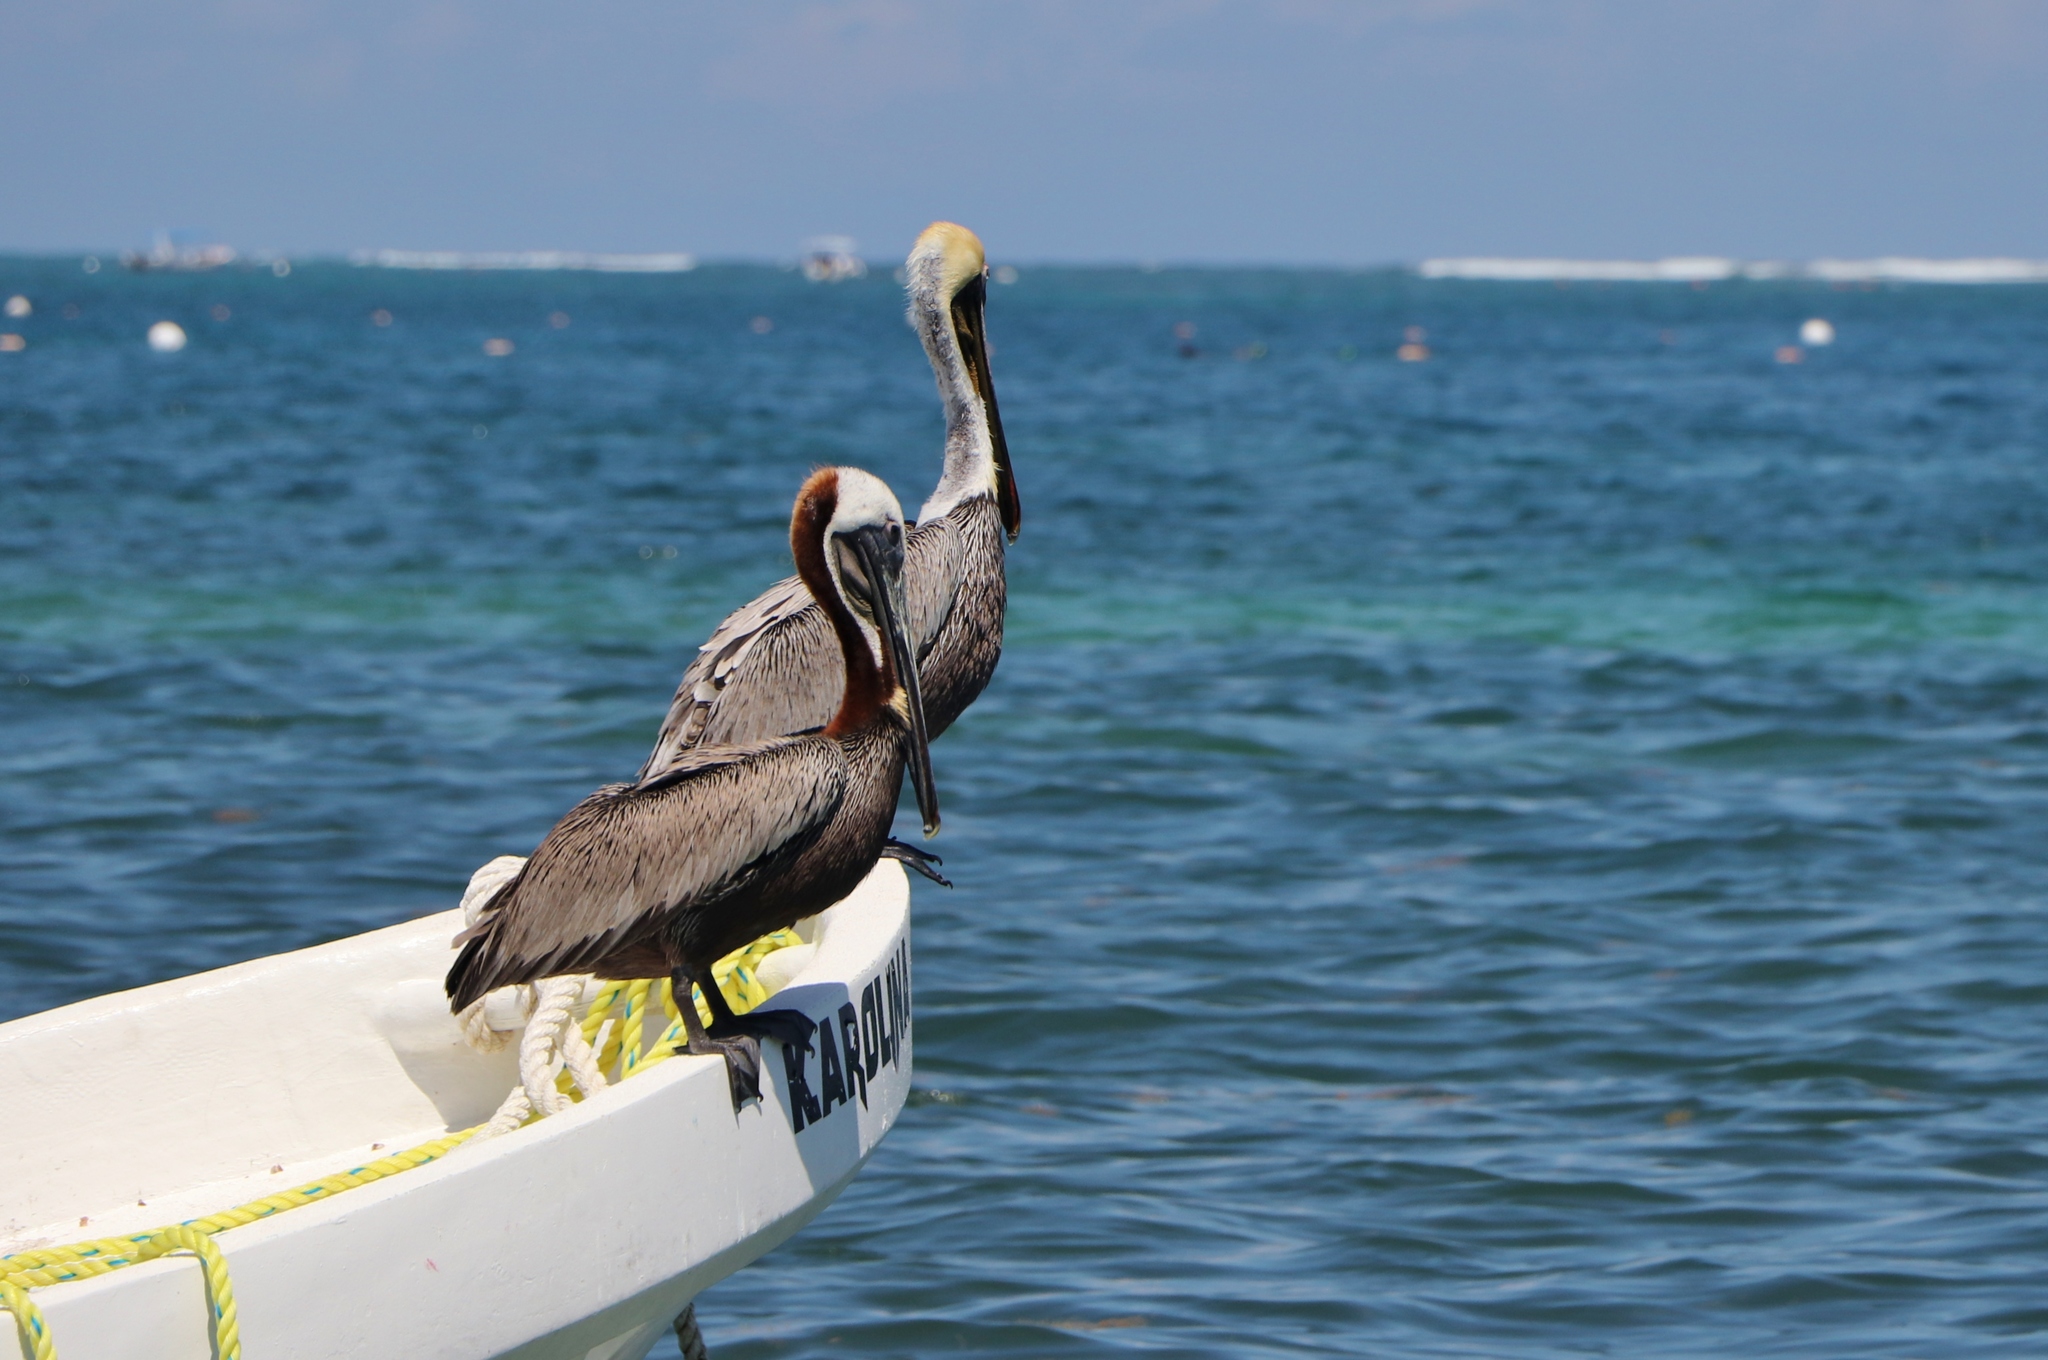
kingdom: Animalia
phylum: Chordata
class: Aves
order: Pelecaniformes
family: Pelecanidae
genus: Pelecanus
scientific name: Pelecanus occidentalis
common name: Brown pelican
